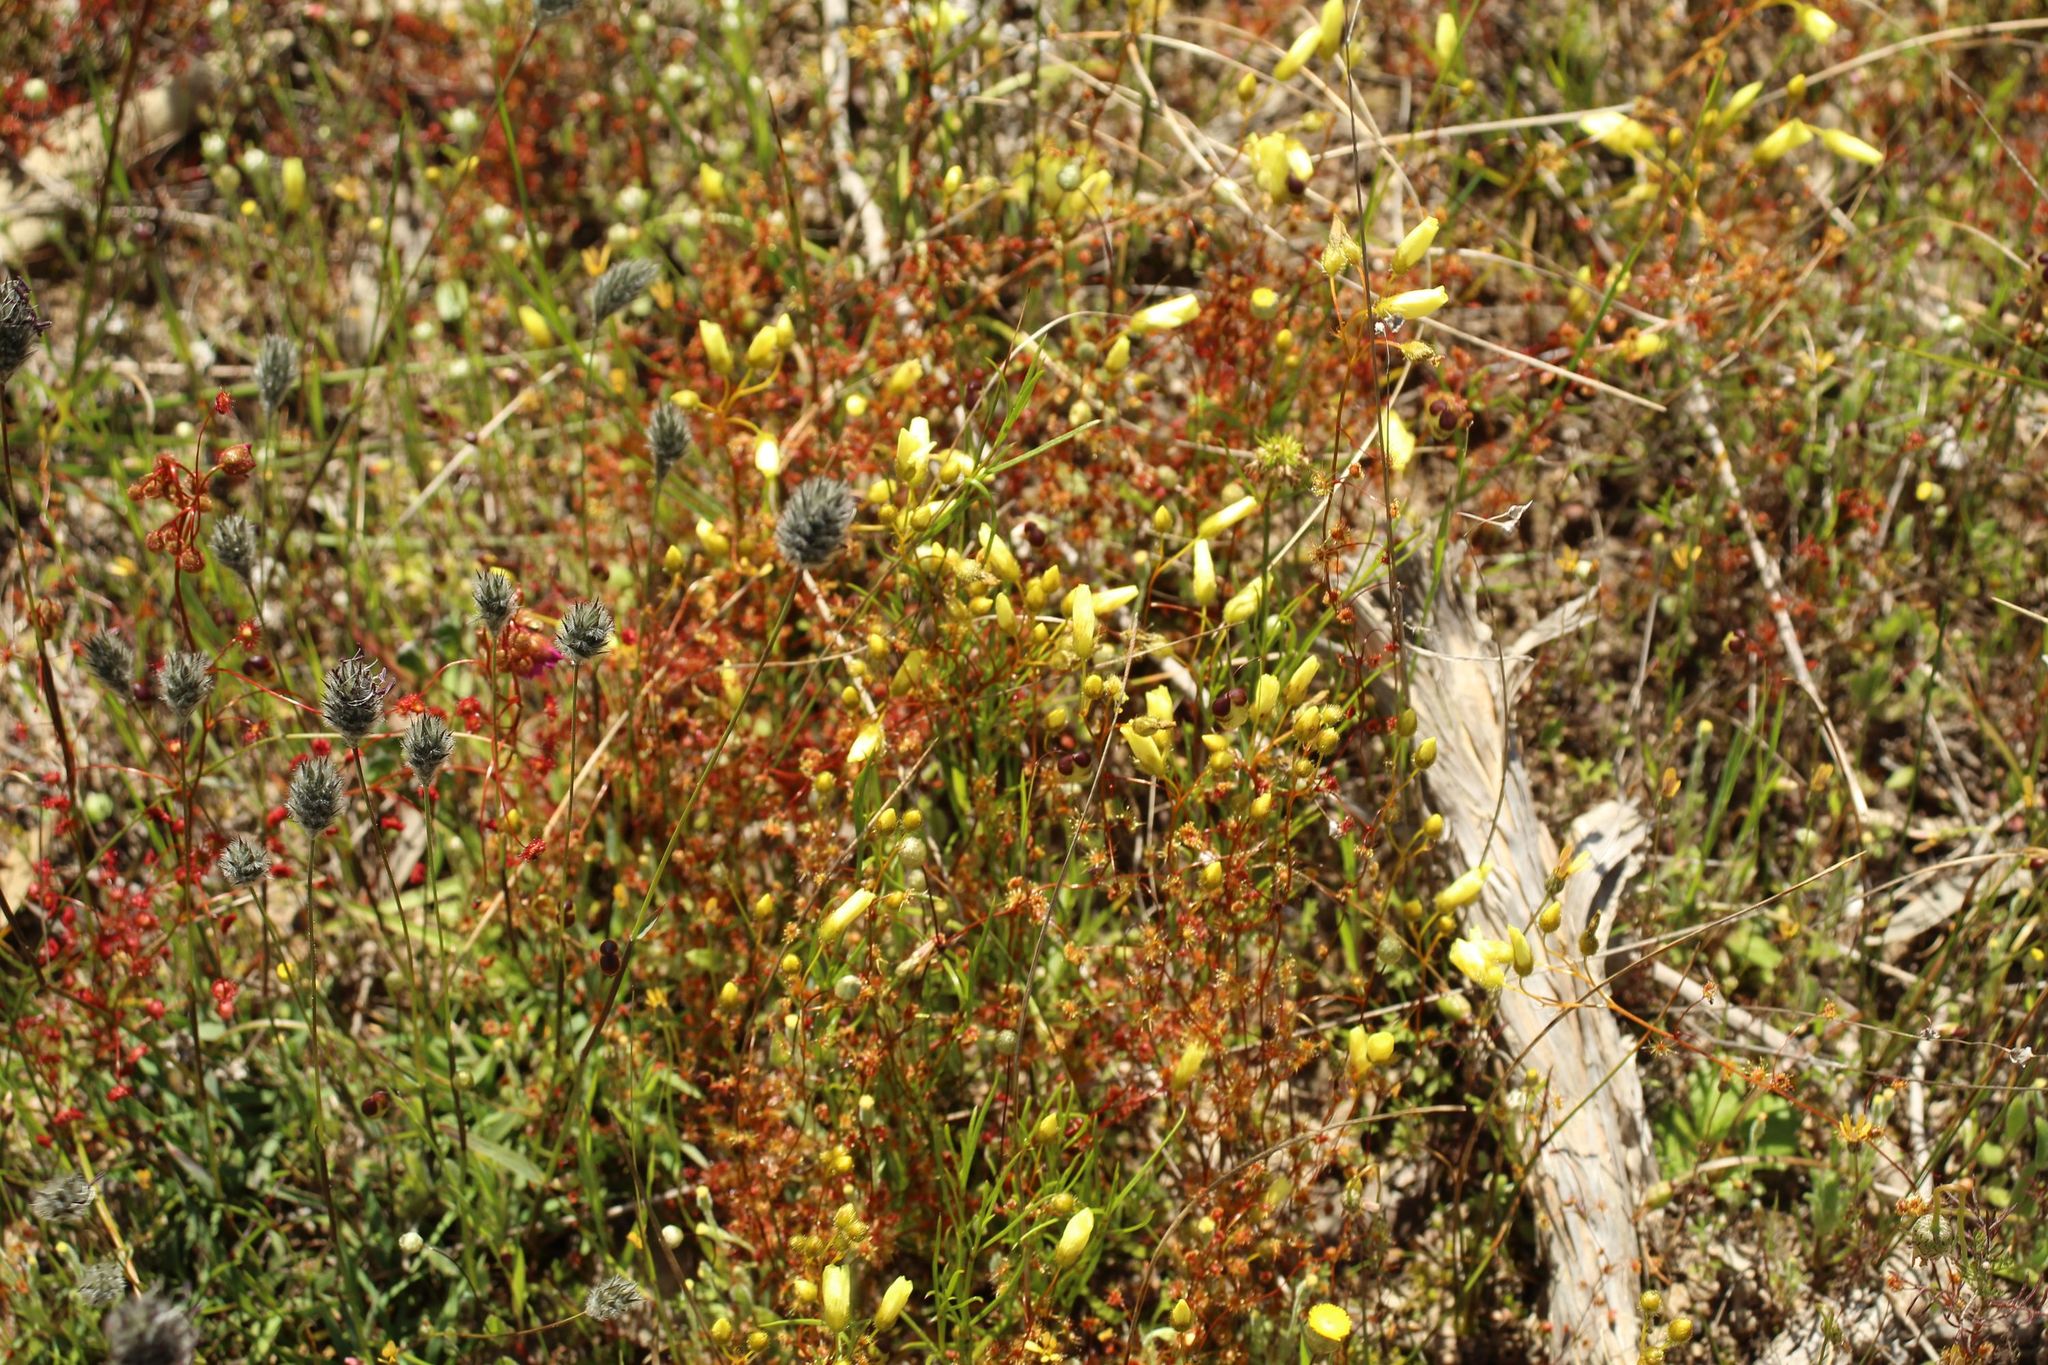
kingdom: Plantae
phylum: Tracheophyta
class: Magnoliopsida
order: Caryophyllales
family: Droseraceae
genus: Drosera
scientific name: Drosera intricata
